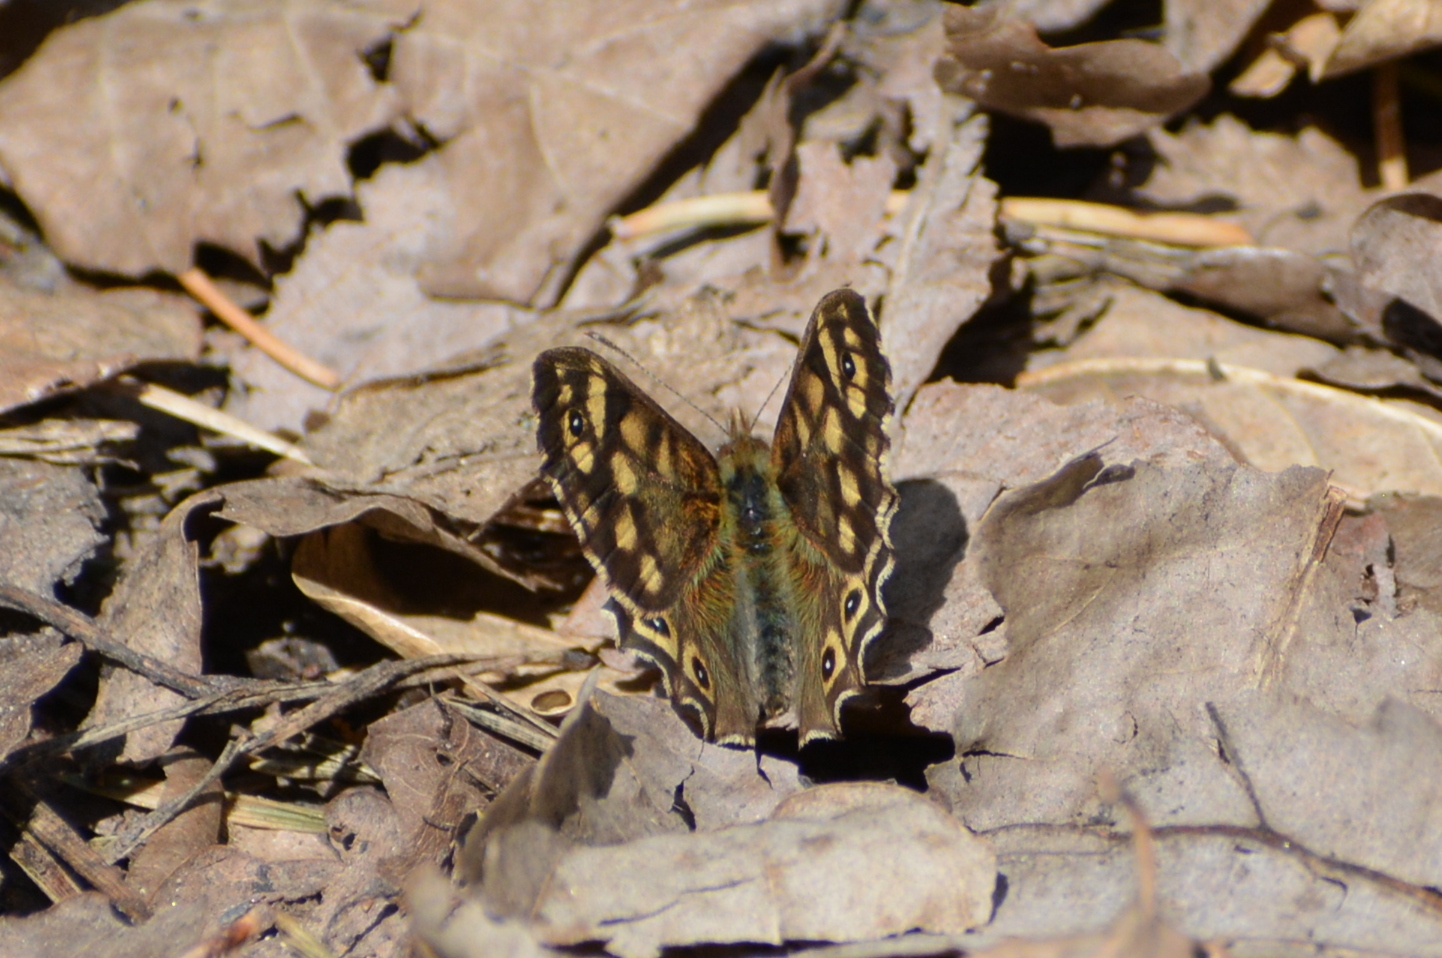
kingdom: Animalia
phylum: Arthropoda
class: Insecta
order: Lepidoptera
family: Nymphalidae
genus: Pararge
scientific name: Pararge aegeria
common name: Speckled wood
